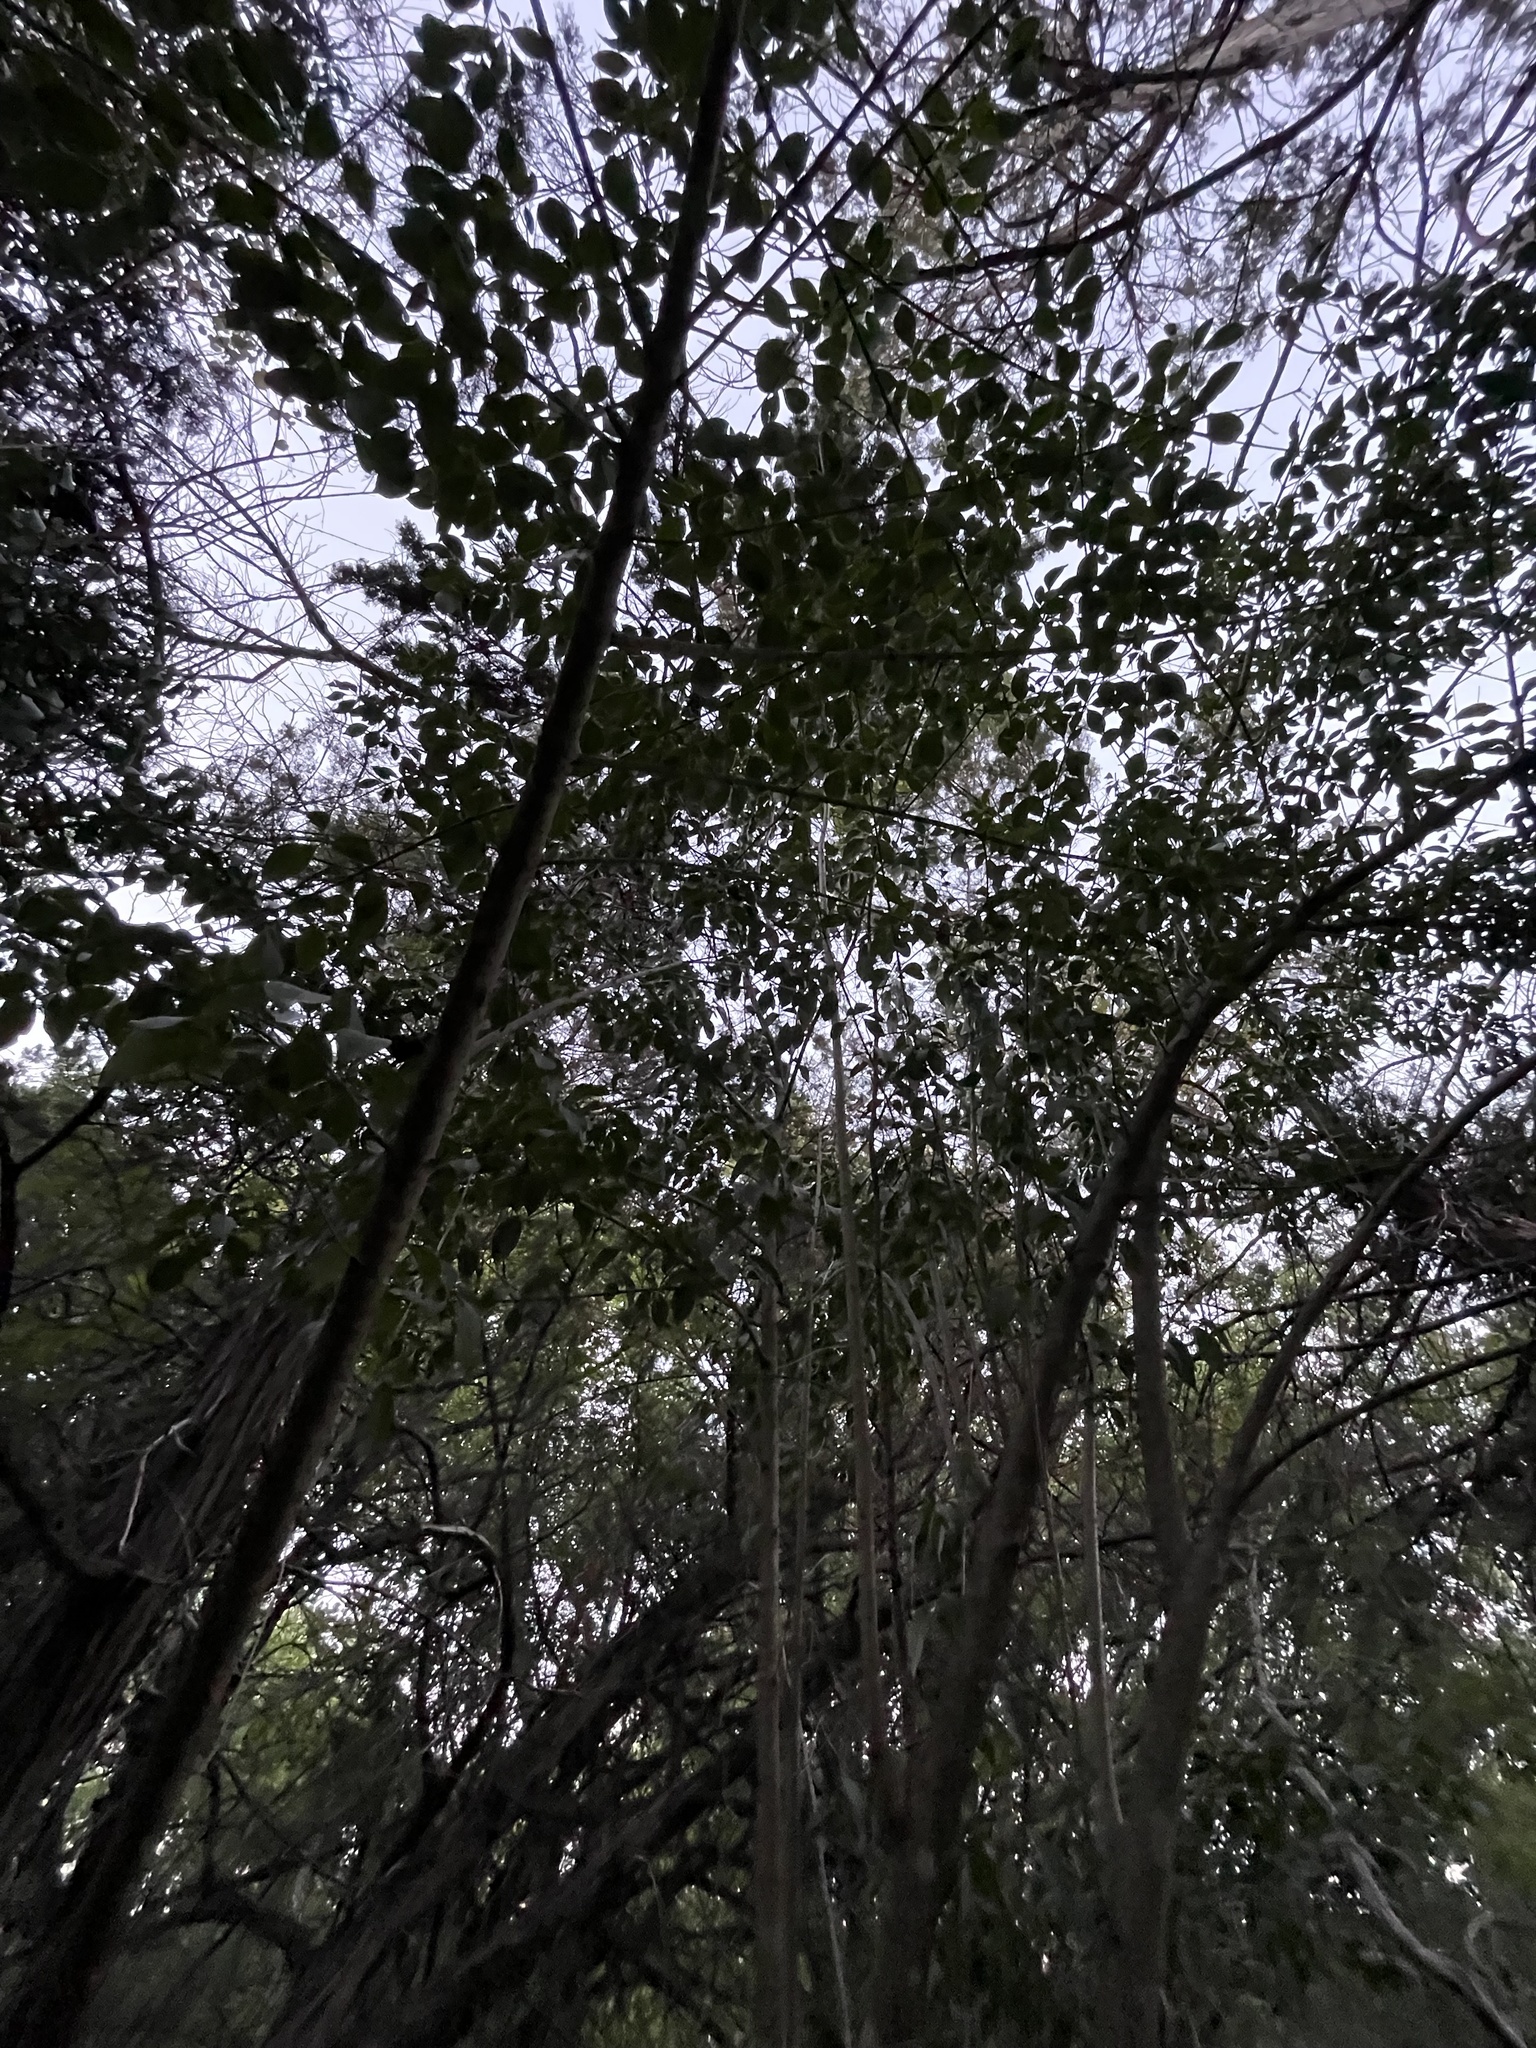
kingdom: Plantae
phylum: Tracheophyta
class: Magnoliopsida
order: Lamiales
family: Oleaceae
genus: Ligustrum
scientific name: Ligustrum lucidum
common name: Glossy privet
